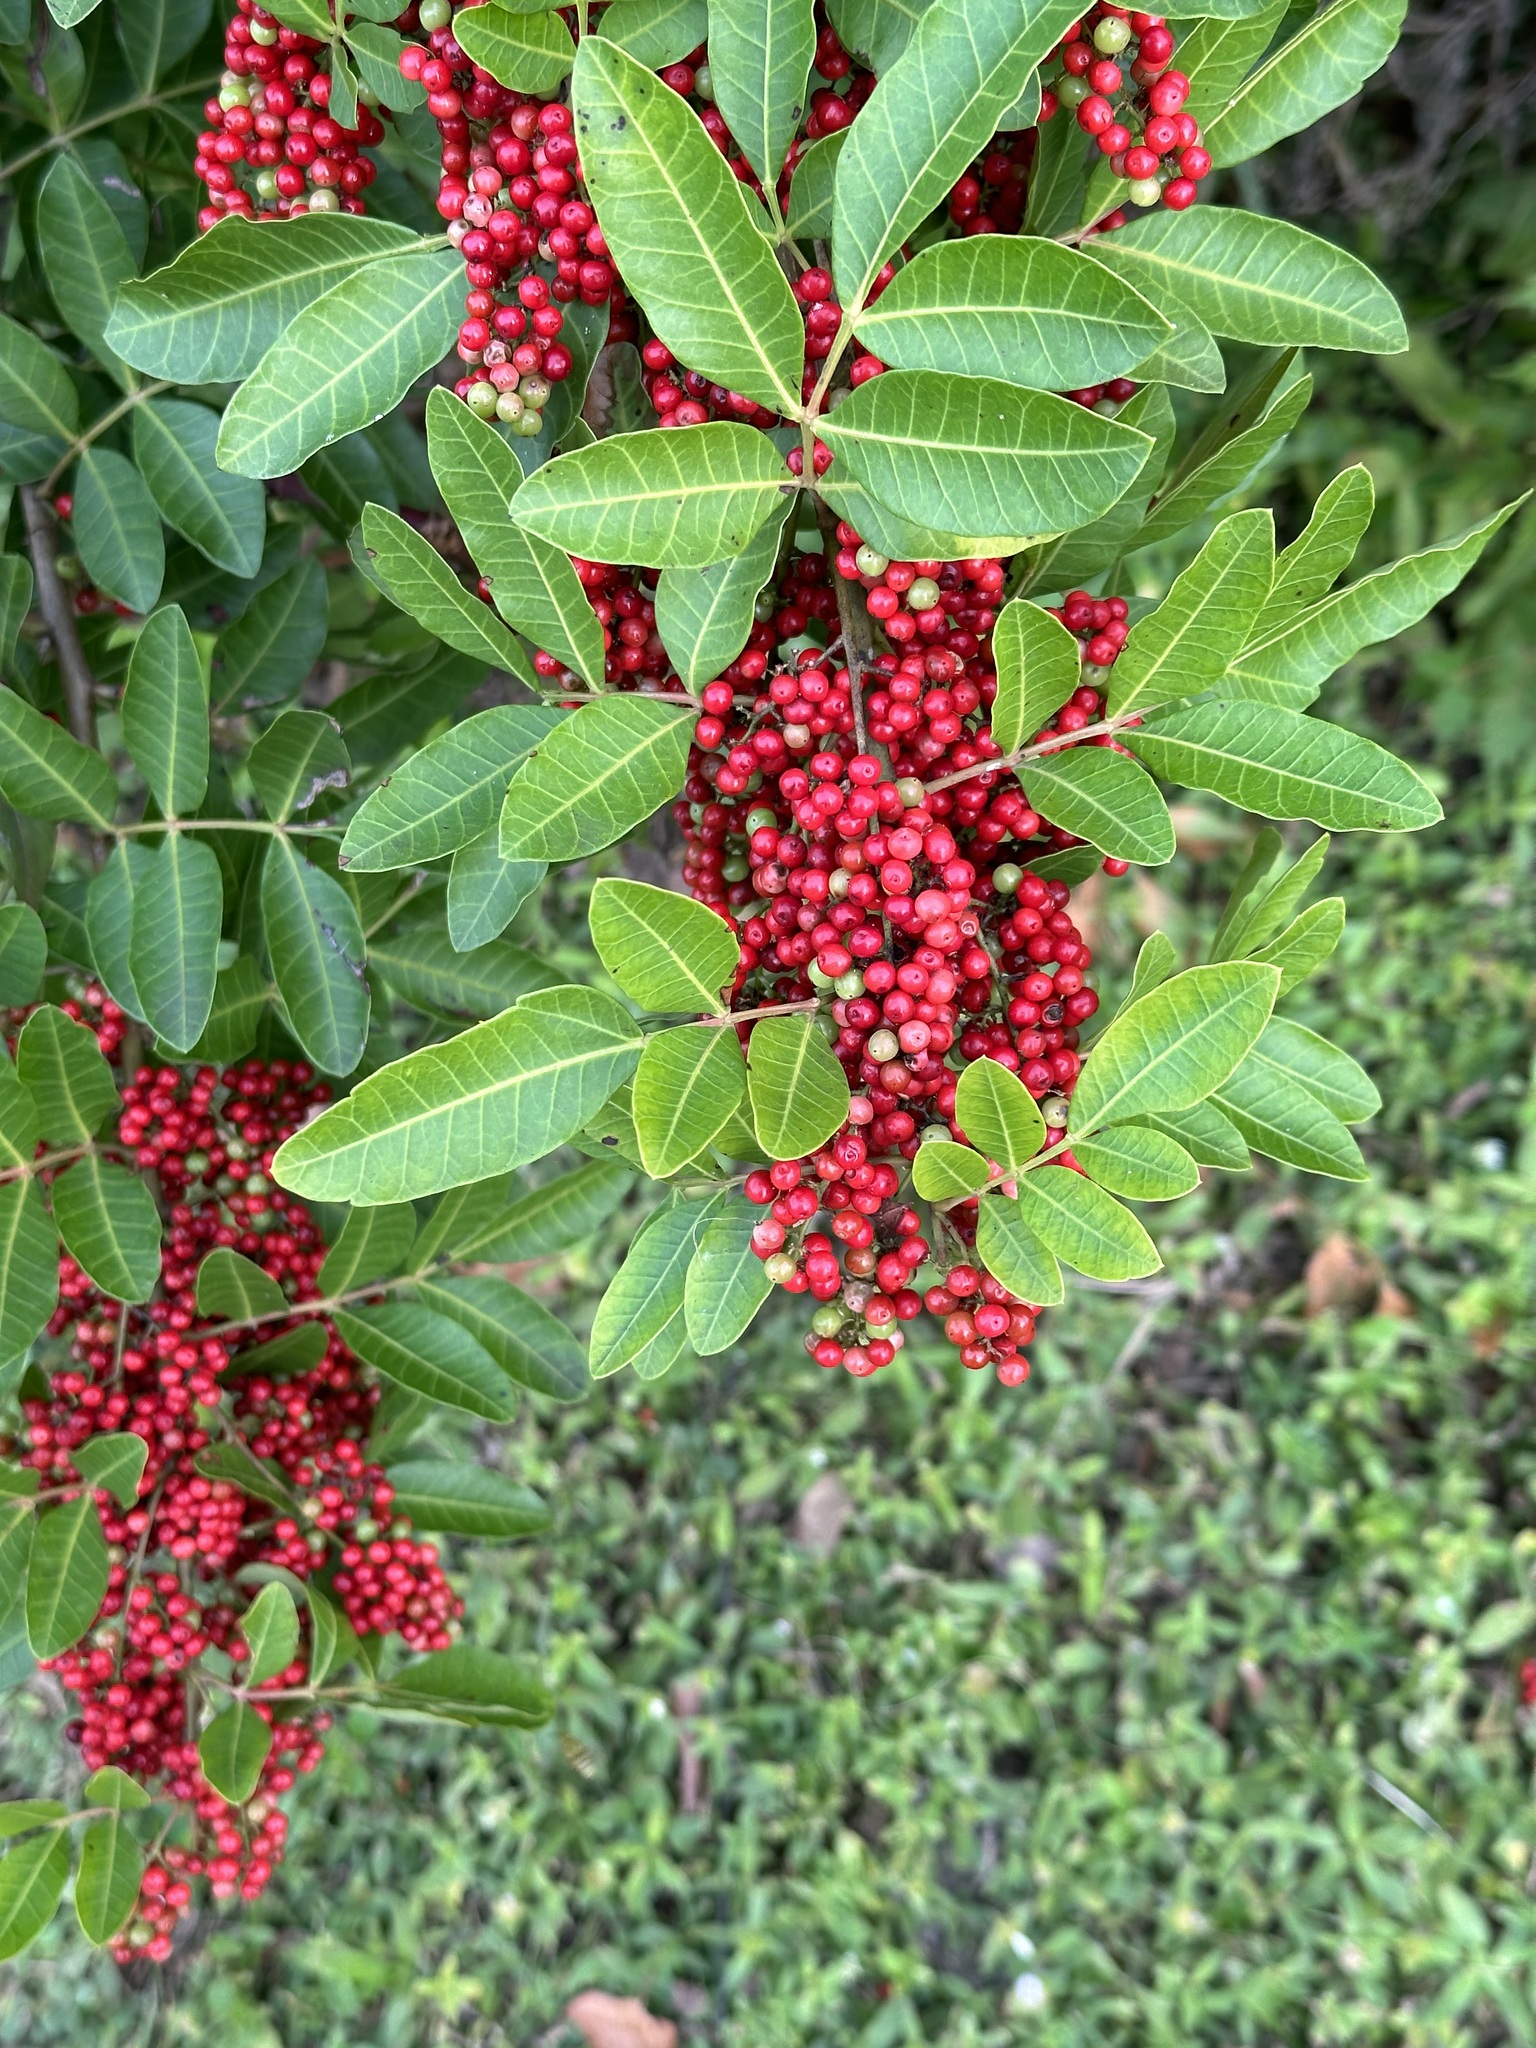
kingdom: Plantae
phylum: Tracheophyta
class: Magnoliopsida
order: Sapindales
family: Anacardiaceae
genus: Schinus
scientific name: Schinus terebinthifolia
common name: Brazilian peppertree
